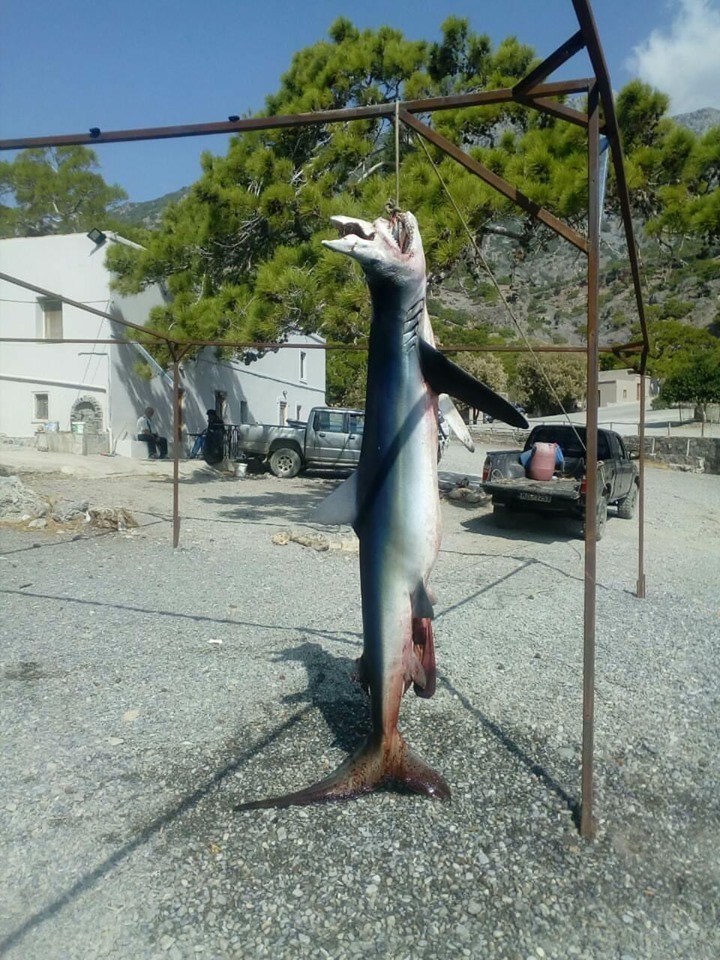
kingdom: Animalia
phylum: Chordata
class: Elasmobranchii
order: Carcharhiniformes
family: Carcharhinidae
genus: Prionace
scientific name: Prionace glauca
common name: Blue shark
